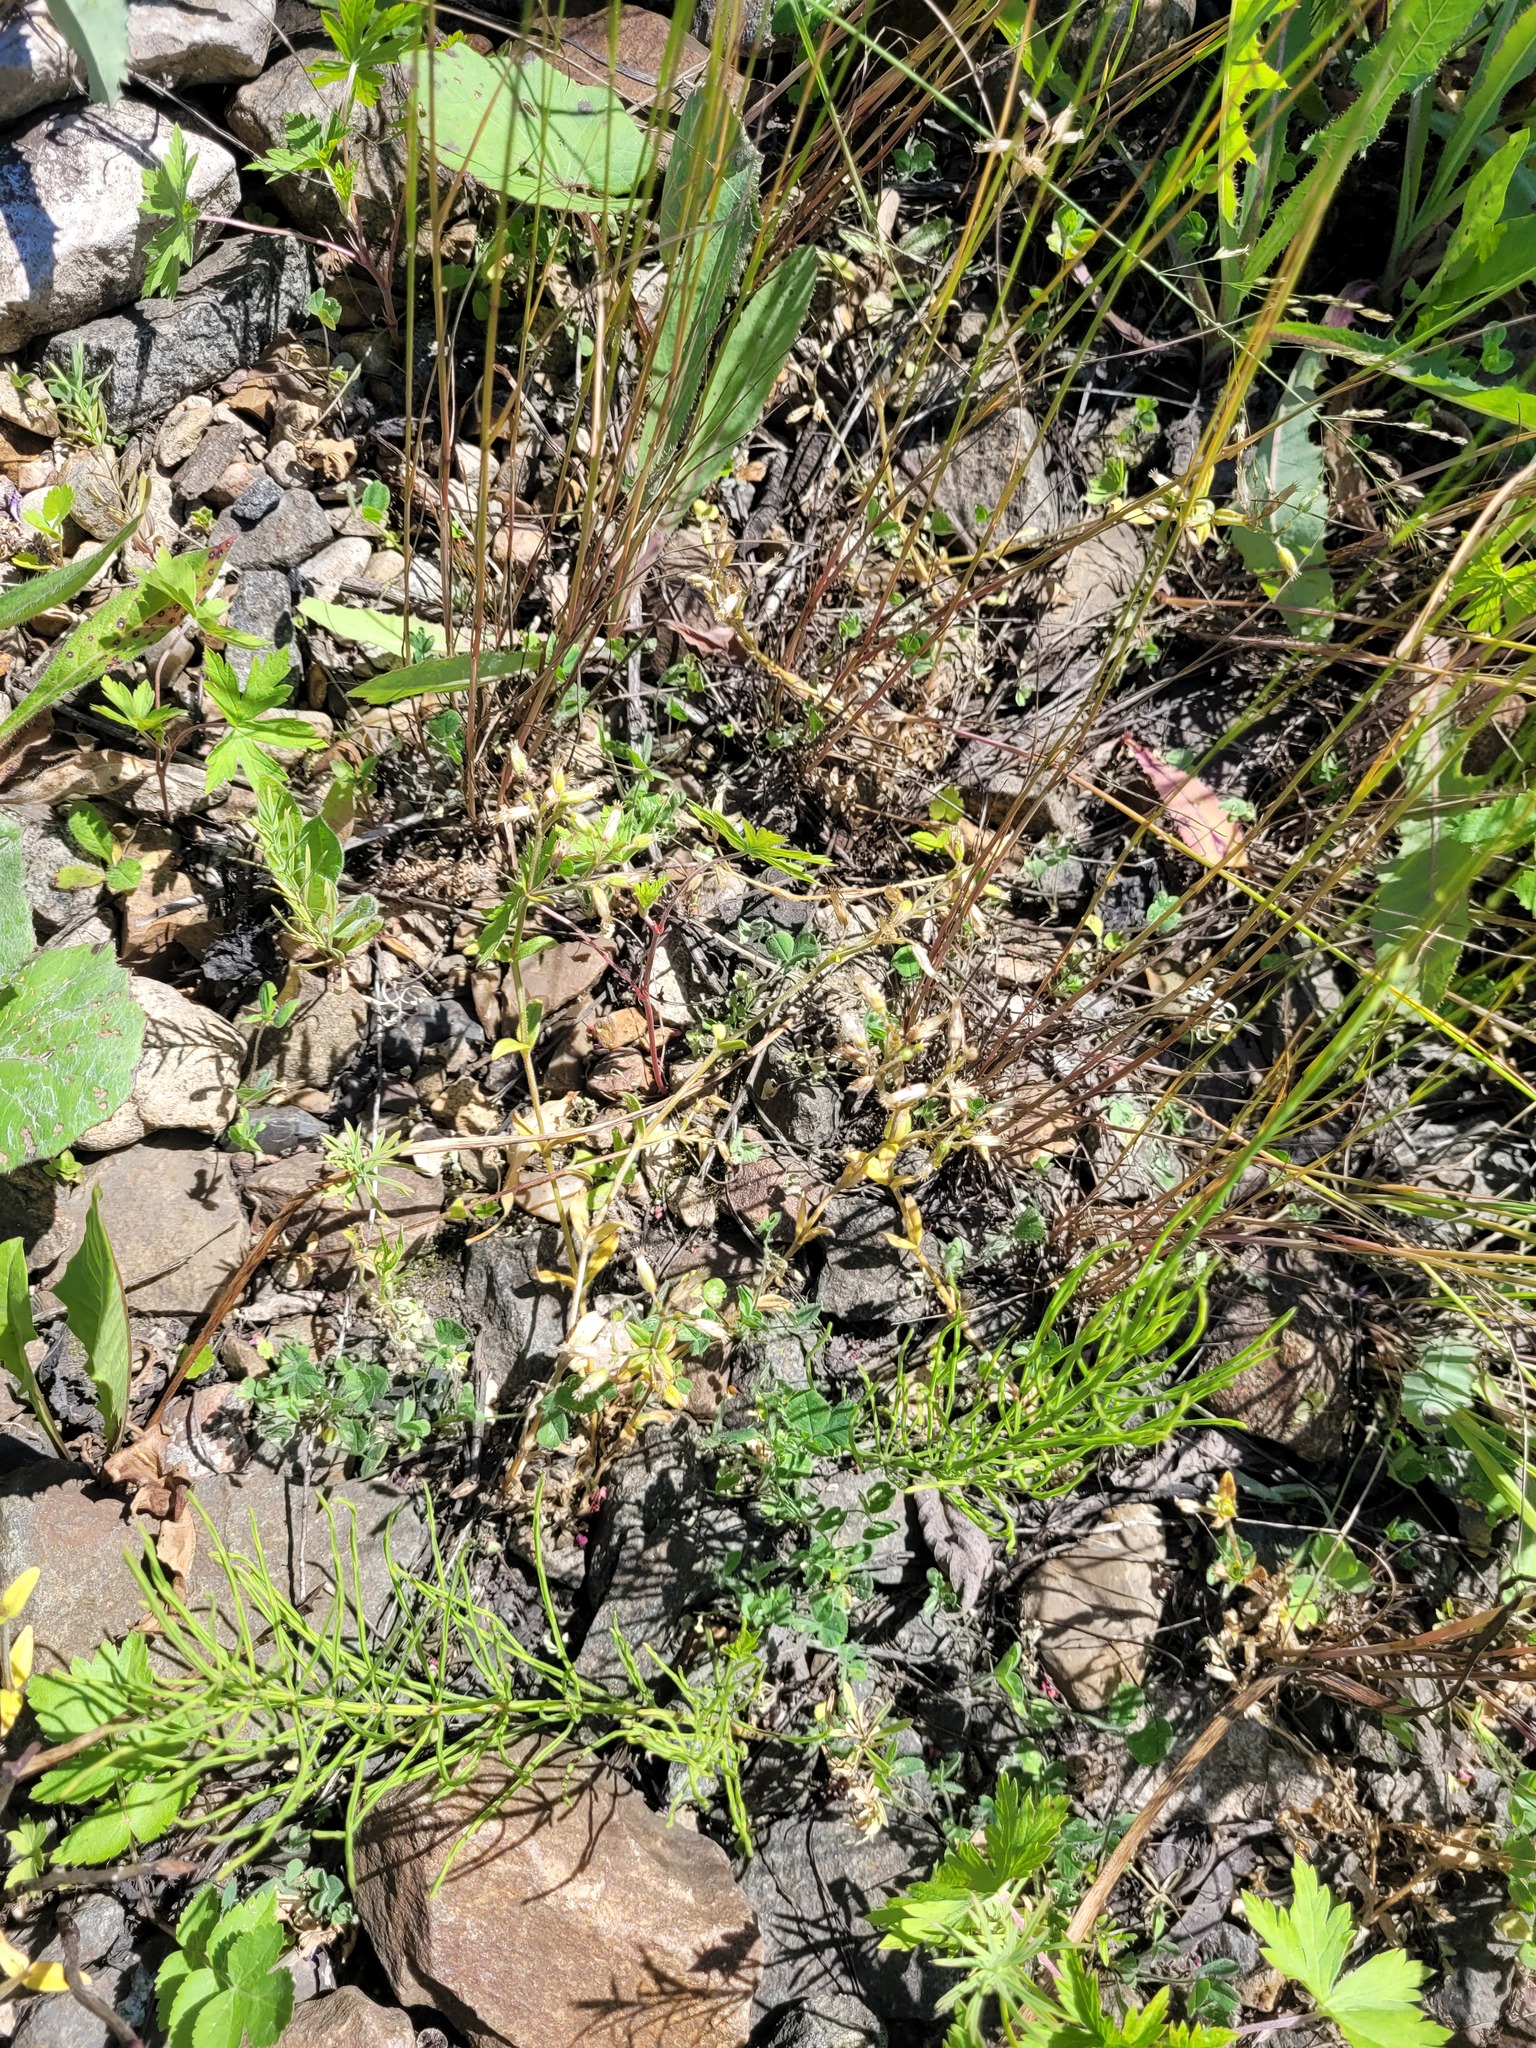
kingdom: Plantae
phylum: Tracheophyta
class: Magnoliopsida
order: Caryophyllales
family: Caryophyllaceae
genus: Cerastium
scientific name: Cerastium holosteoides
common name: Big chickweed
